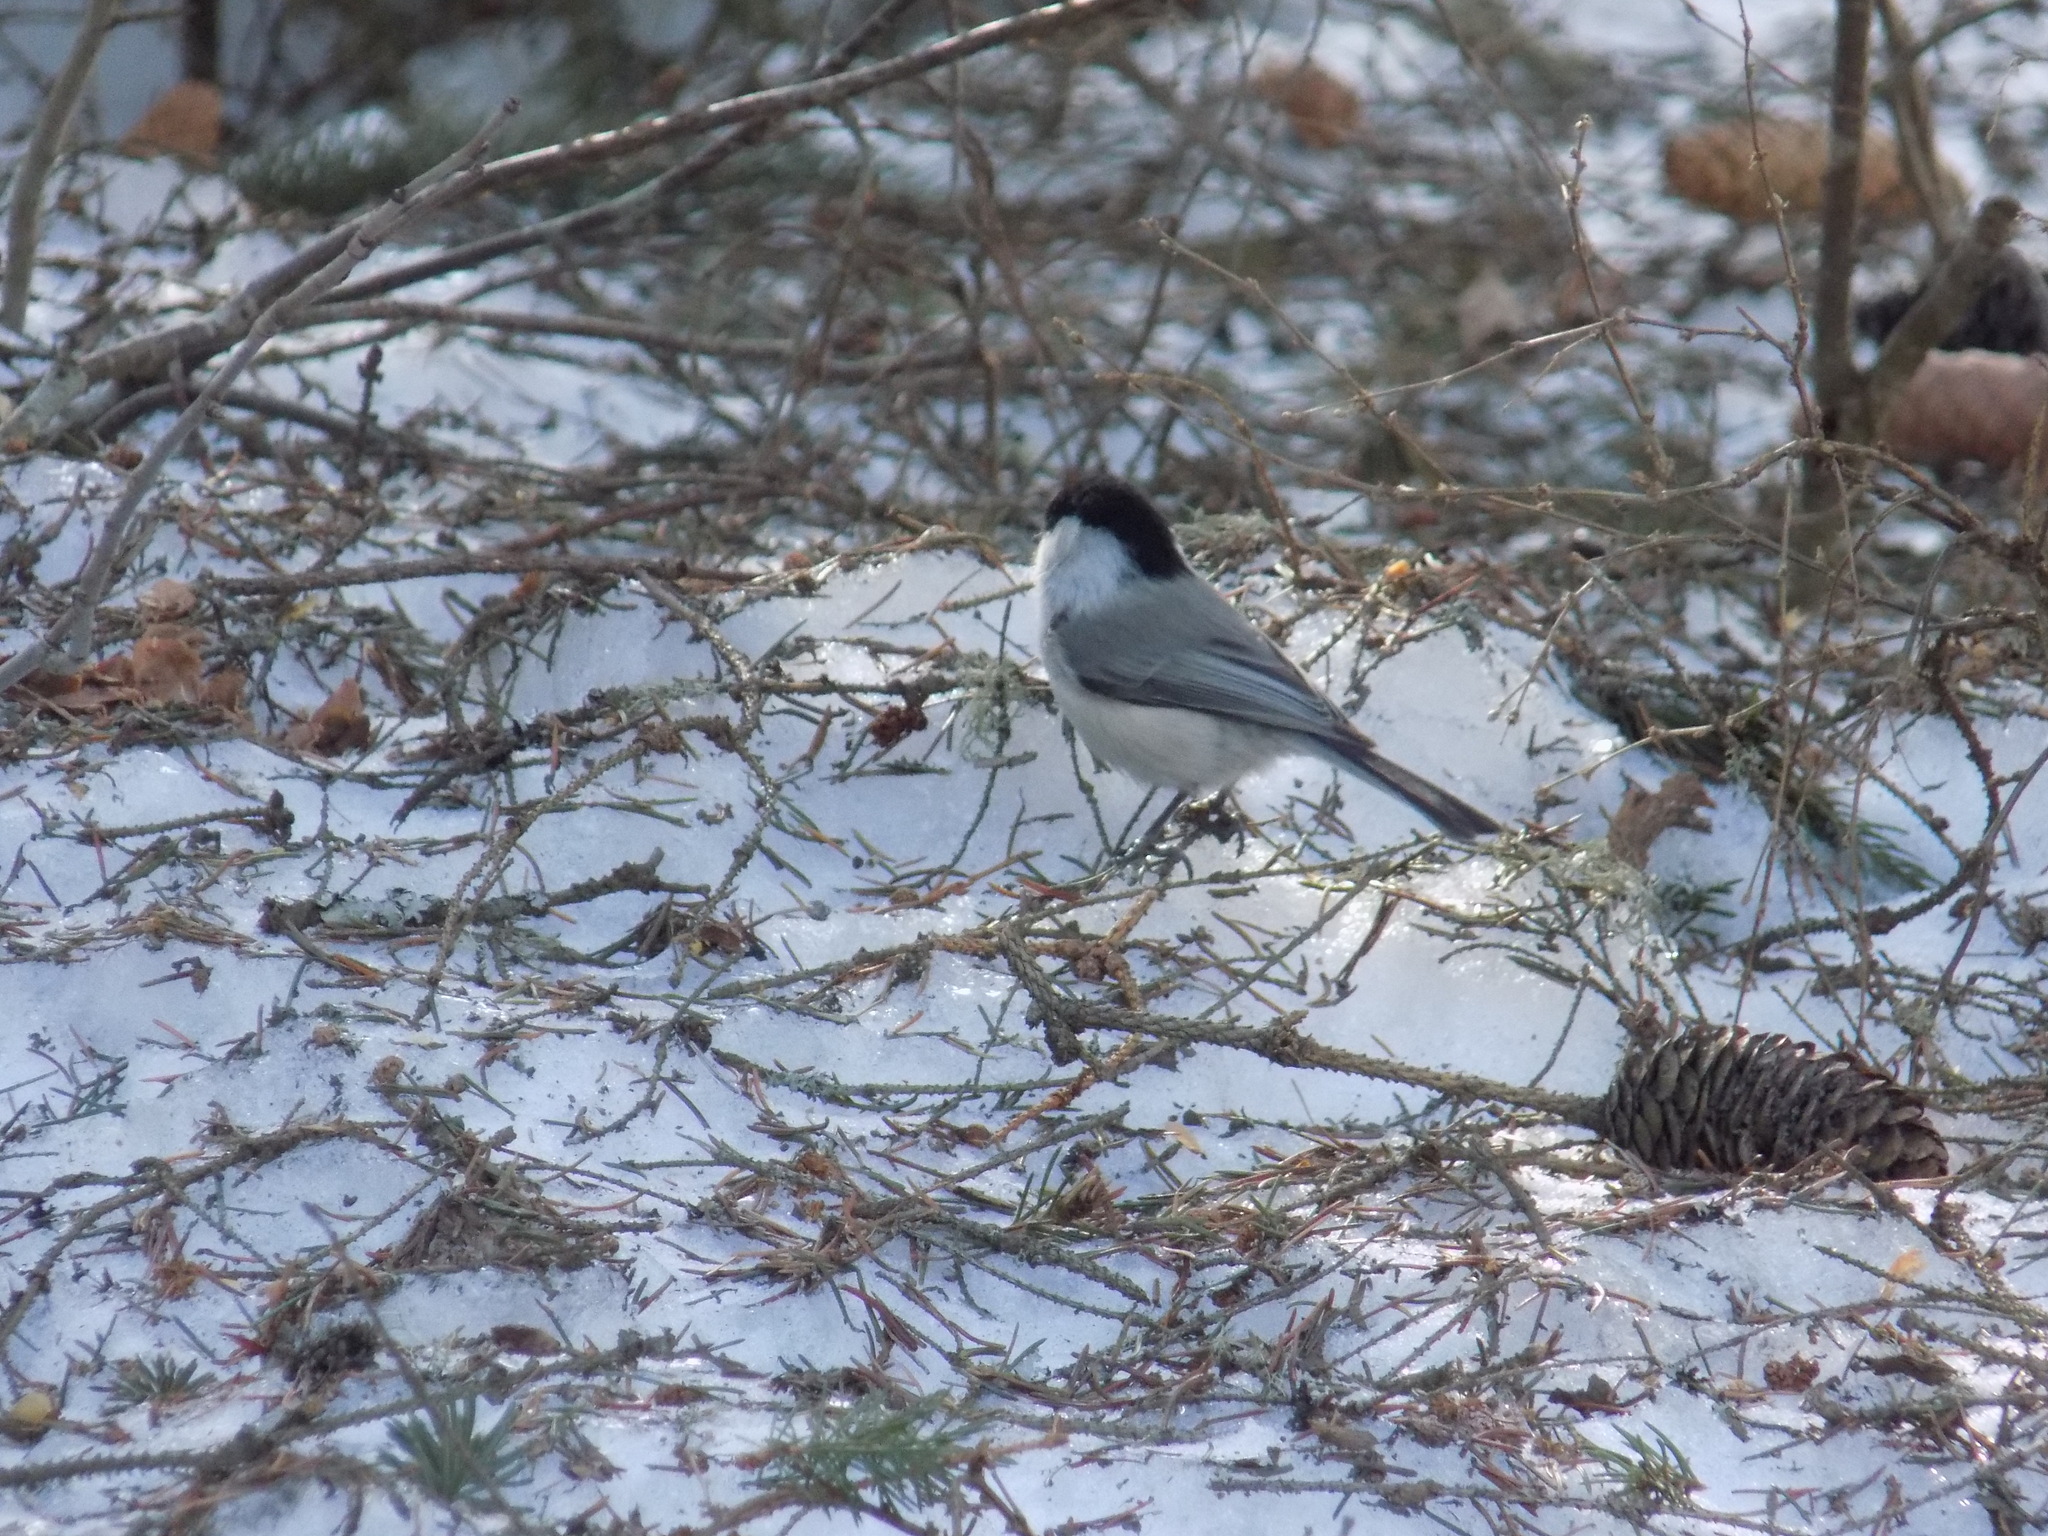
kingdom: Animalia
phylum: Chordata
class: Aves
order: Passeriformes
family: Paridae
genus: Poecile
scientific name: Poecile montanus
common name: Willow tit
